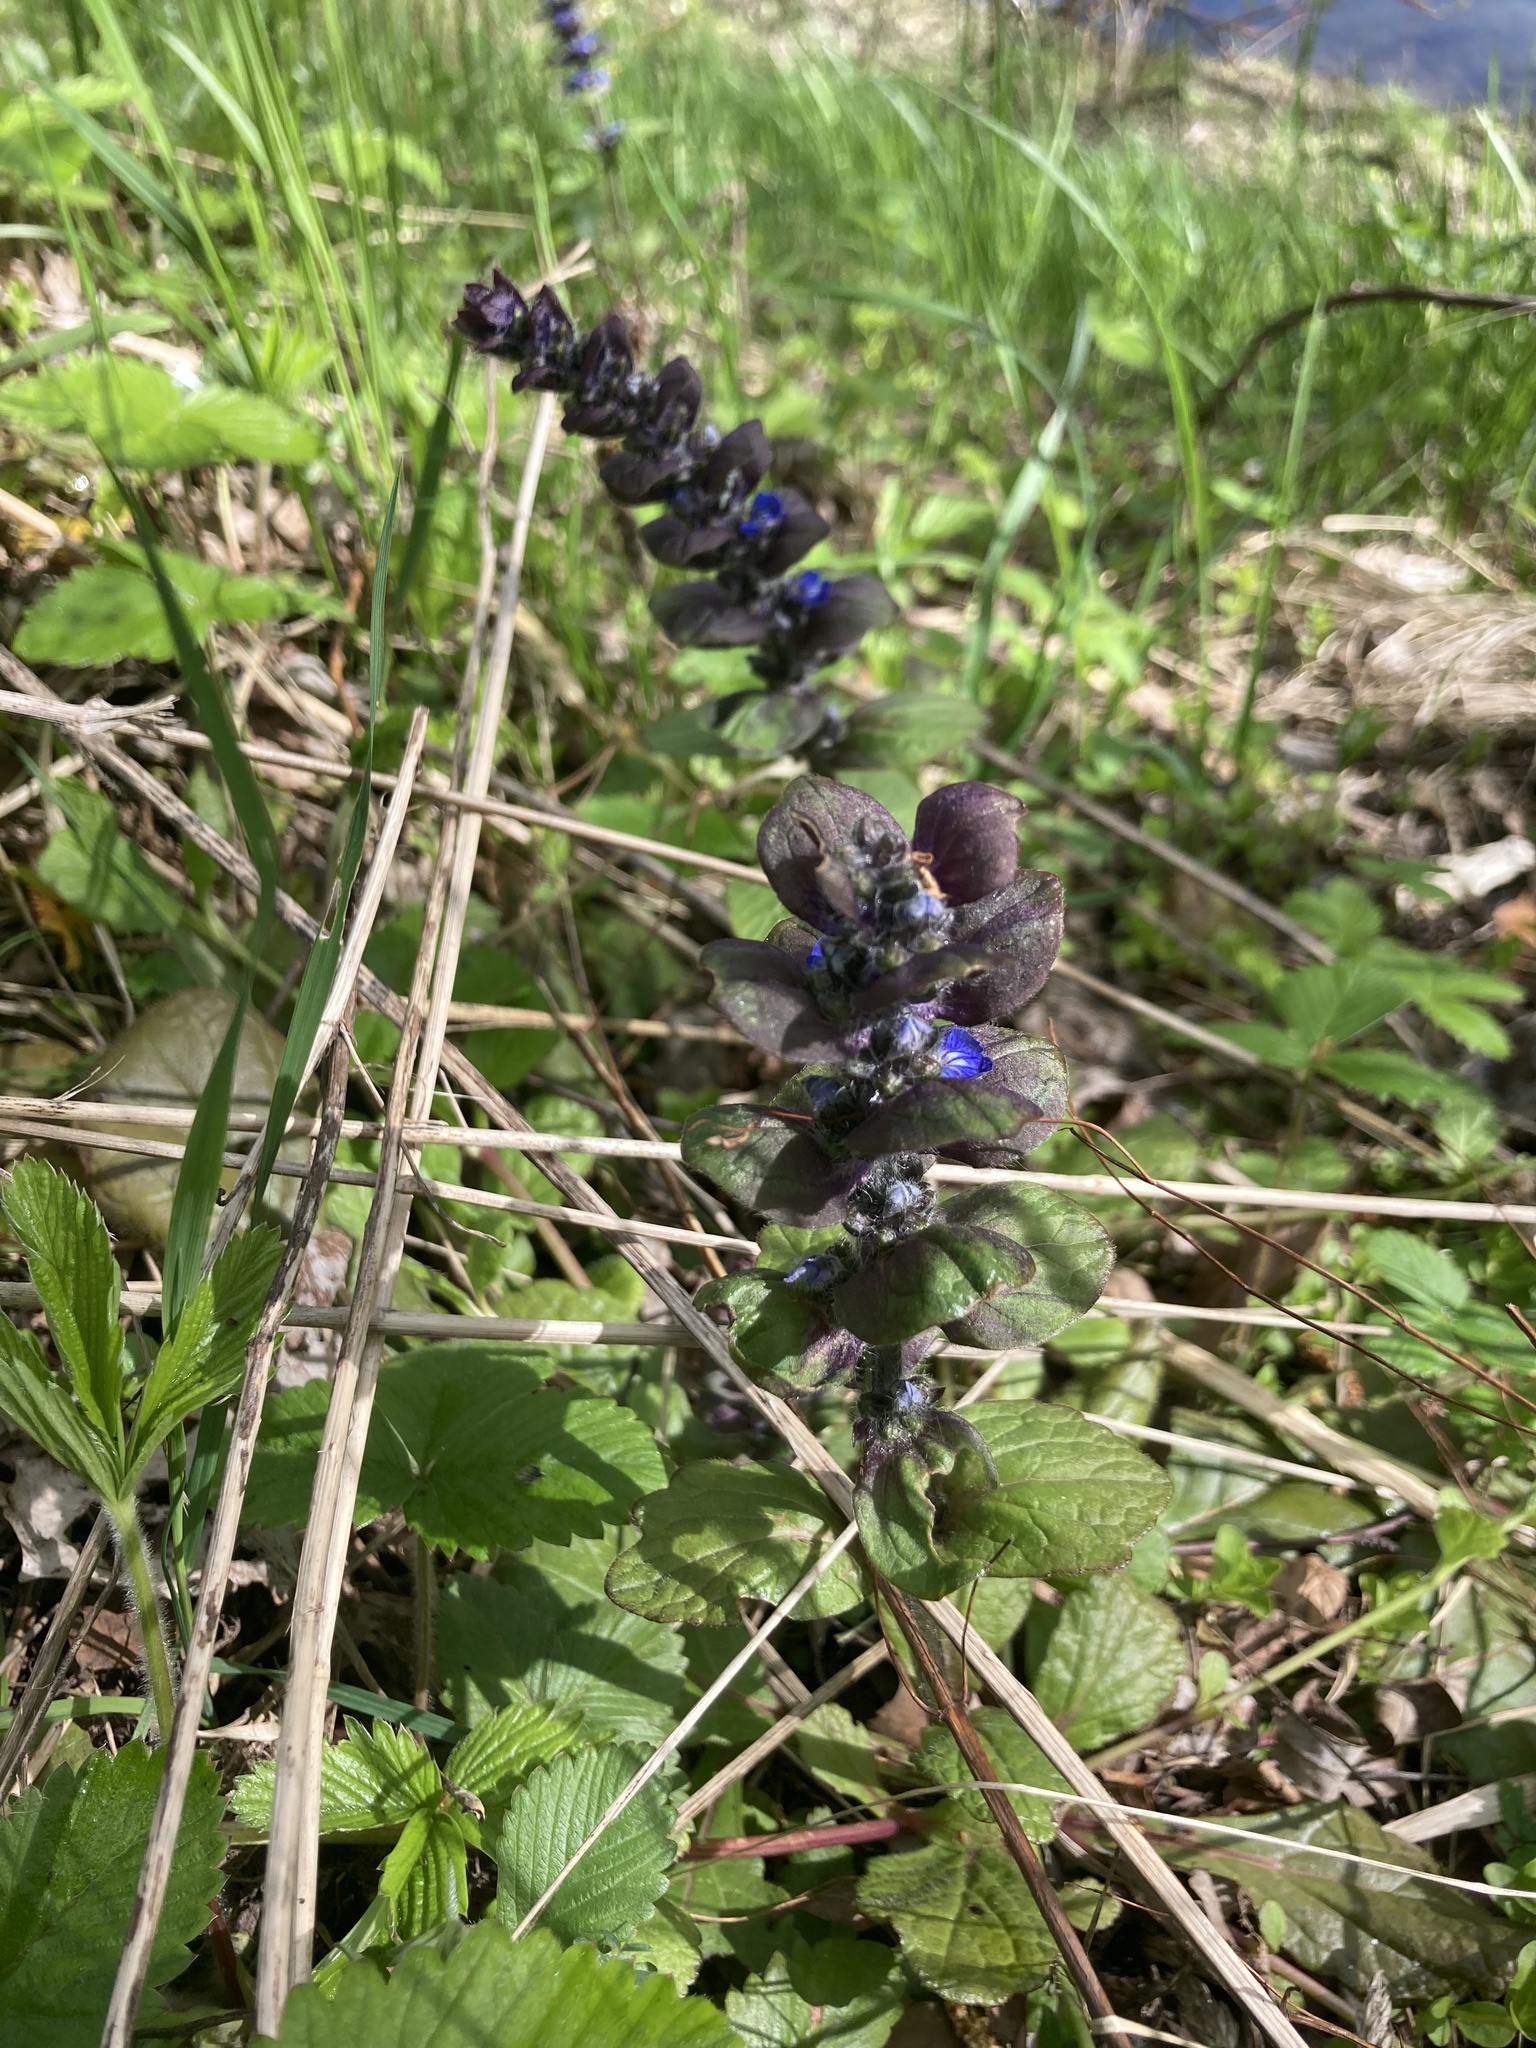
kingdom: Plantae
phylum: Tracheophyta
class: Magnoliopsida
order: Lamiales
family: Lamiaceae
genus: Ajuga
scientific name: Ajuga reptans
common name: Bugle
